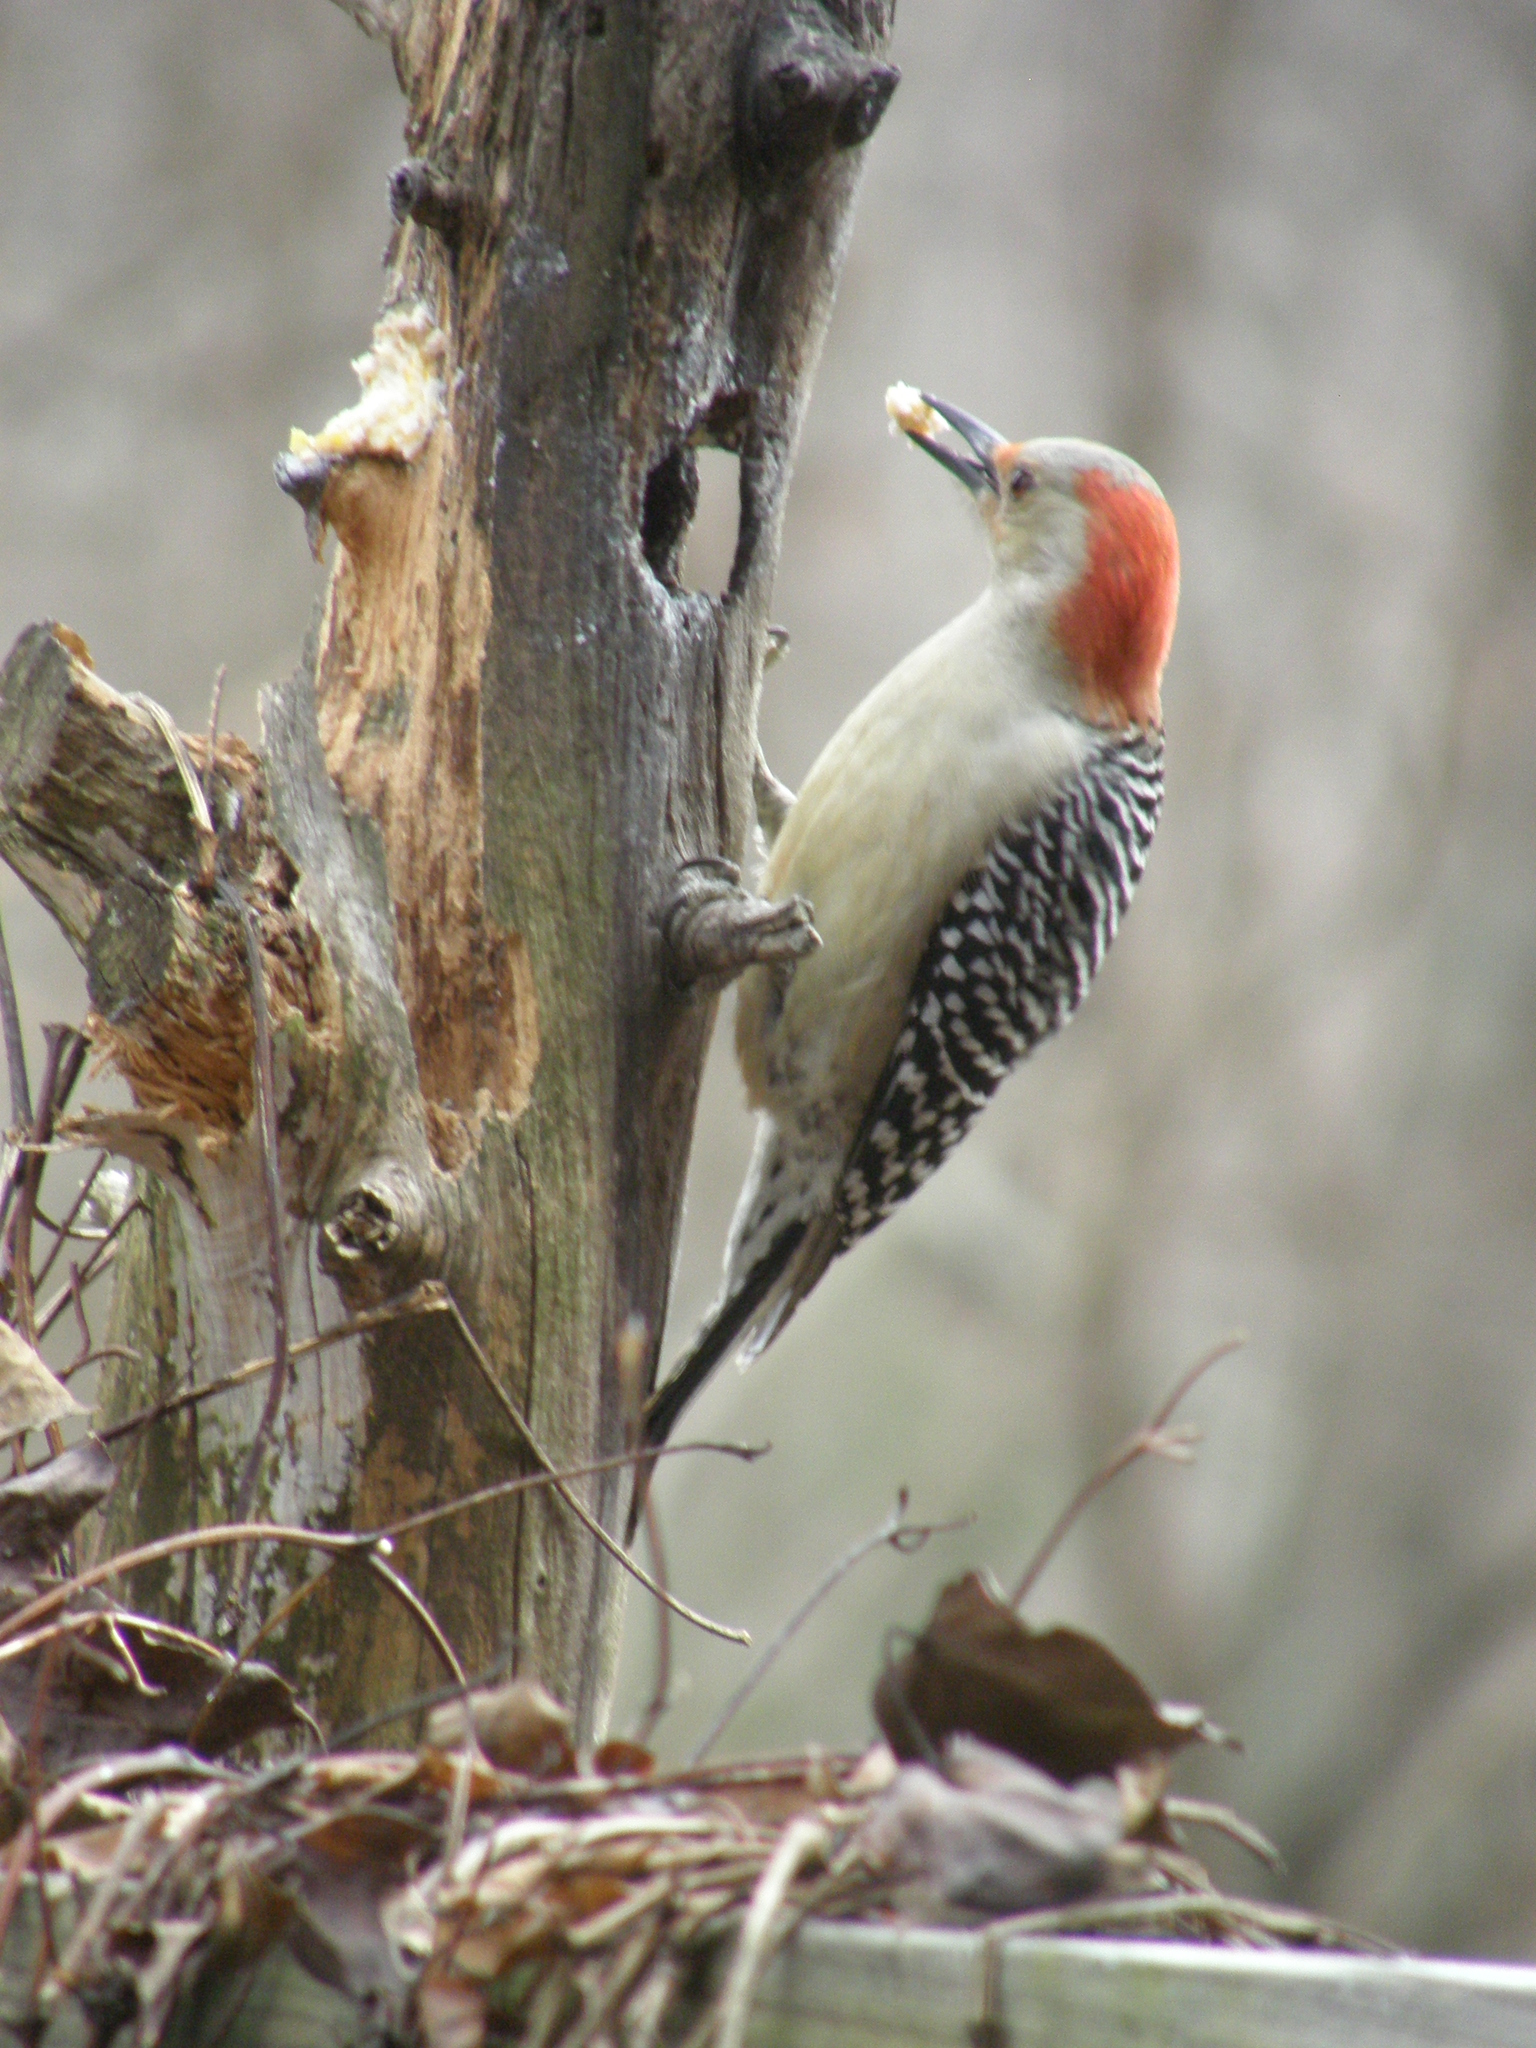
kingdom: Animalia
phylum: Chordata
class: Aves
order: Piciformes
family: Picidae
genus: Melanerpes
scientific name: Melanerpes carolinus
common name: Red-bellied woodpecker
